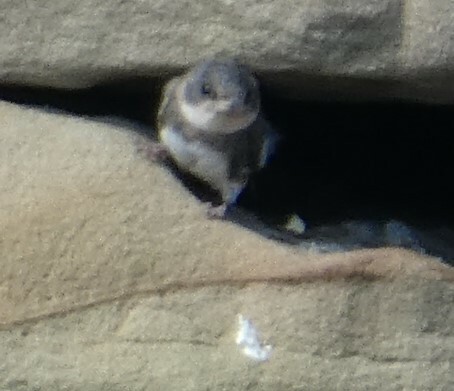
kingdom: Animalia
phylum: Chordata
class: Aves
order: Passeriformes
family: Hirundinidae
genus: Riparia
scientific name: Riparia riparia
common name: Sand martin
